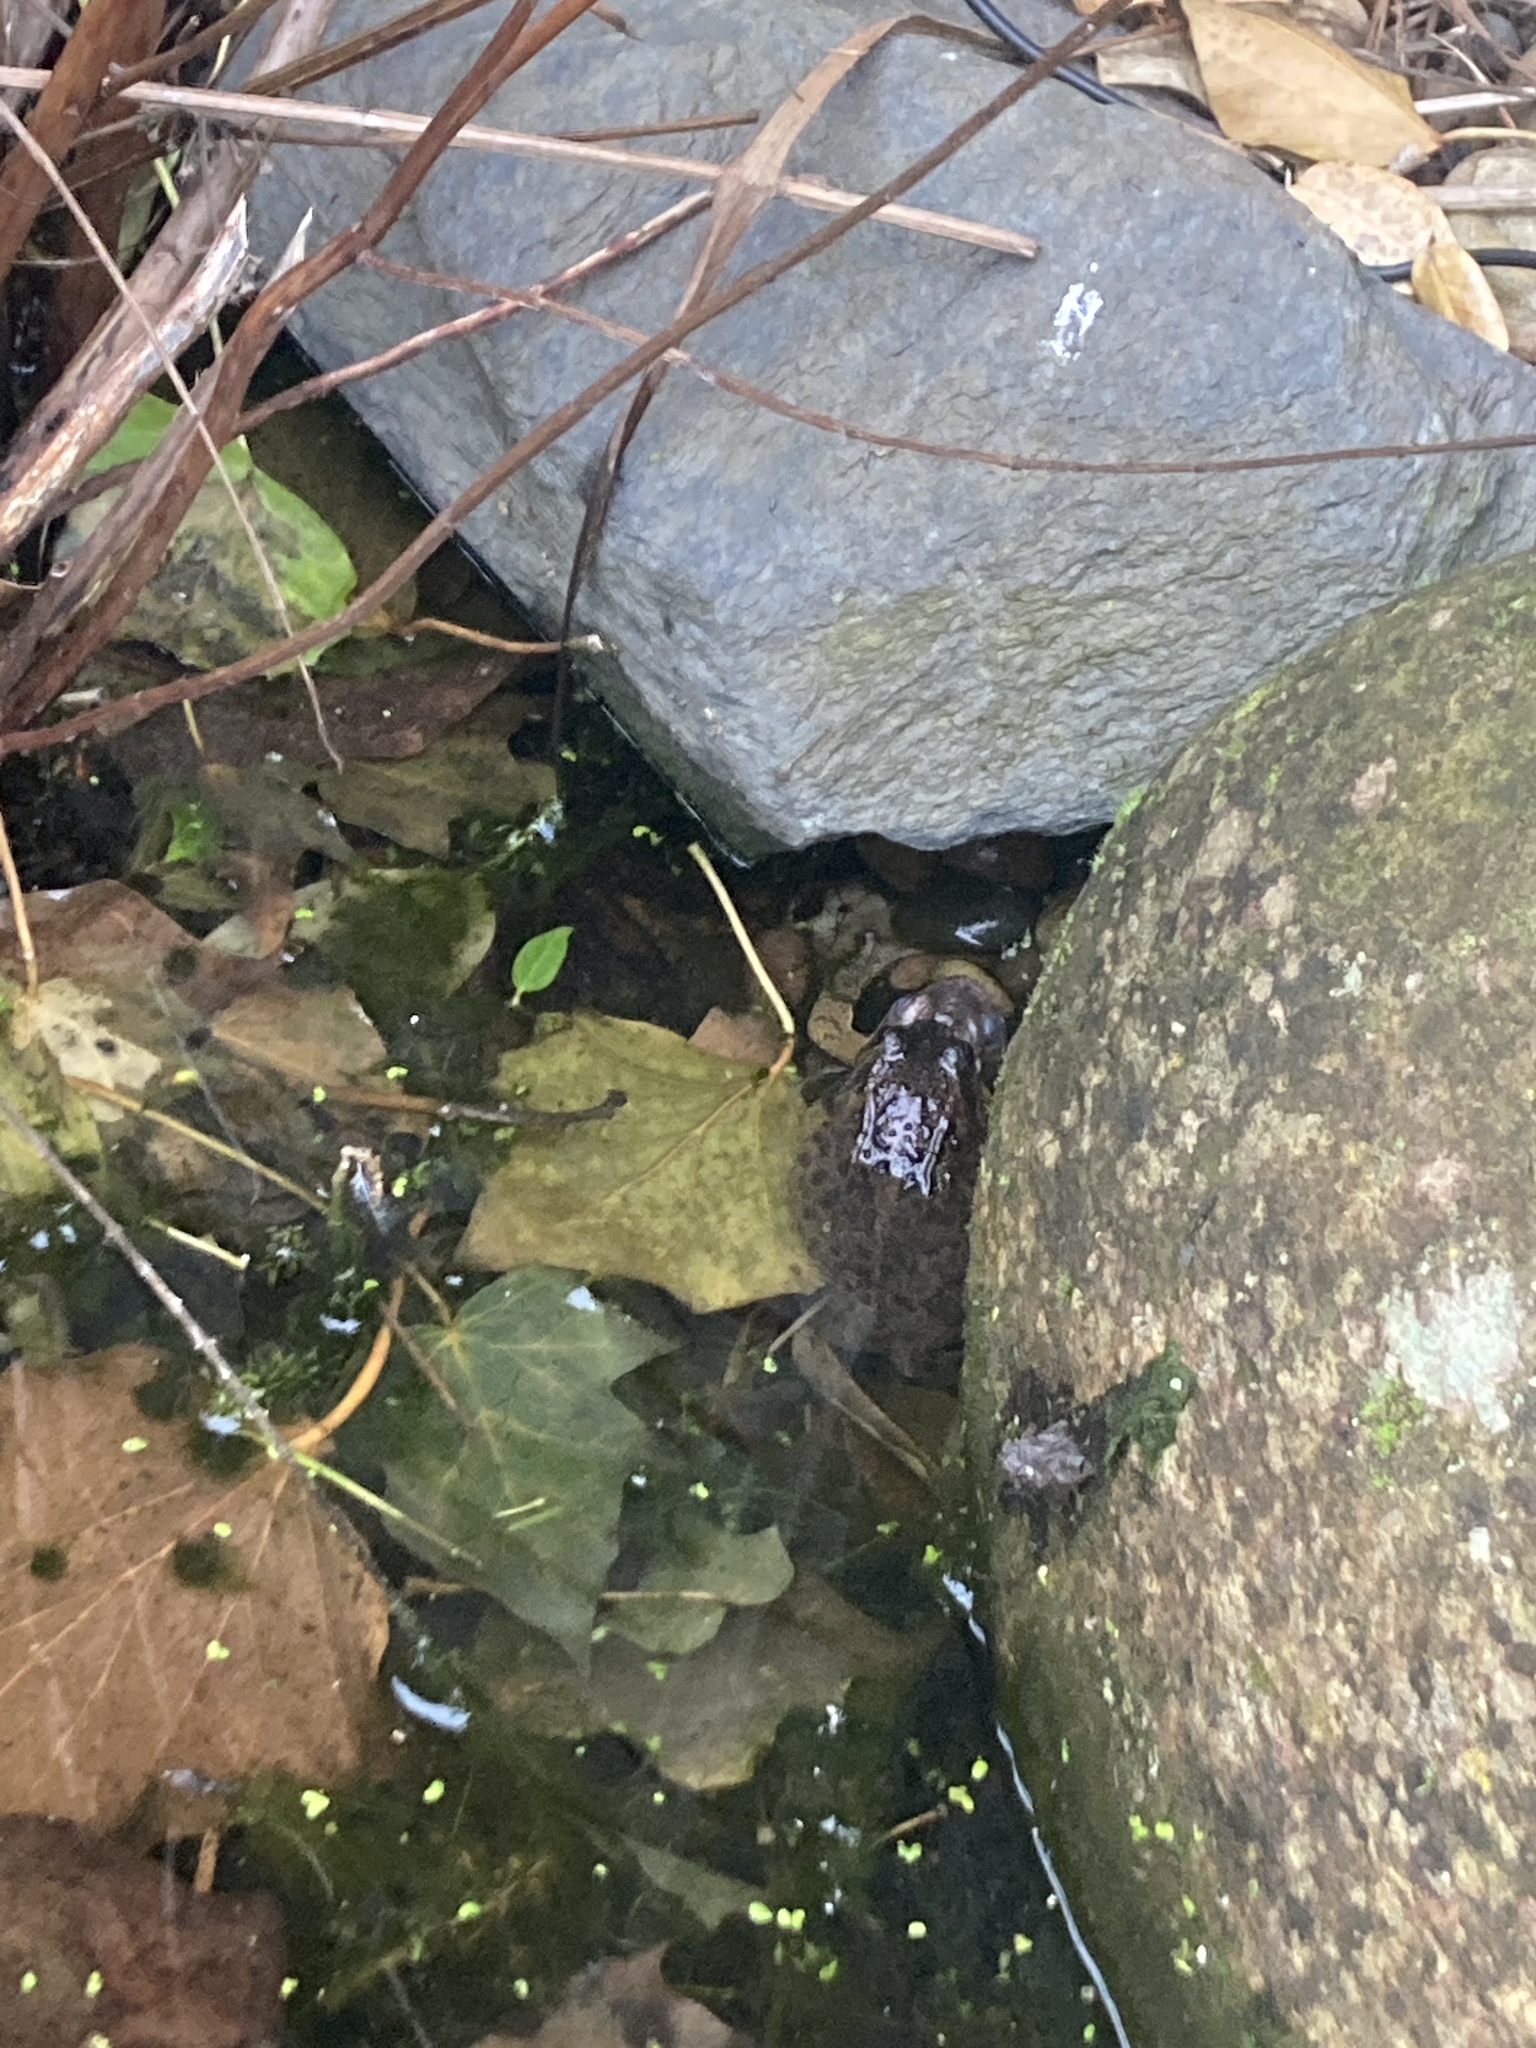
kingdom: Animalia
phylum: Chordata
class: Amphibia
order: Anura
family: Ranidae
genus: Rana
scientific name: Rana temporaria
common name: Common frog
